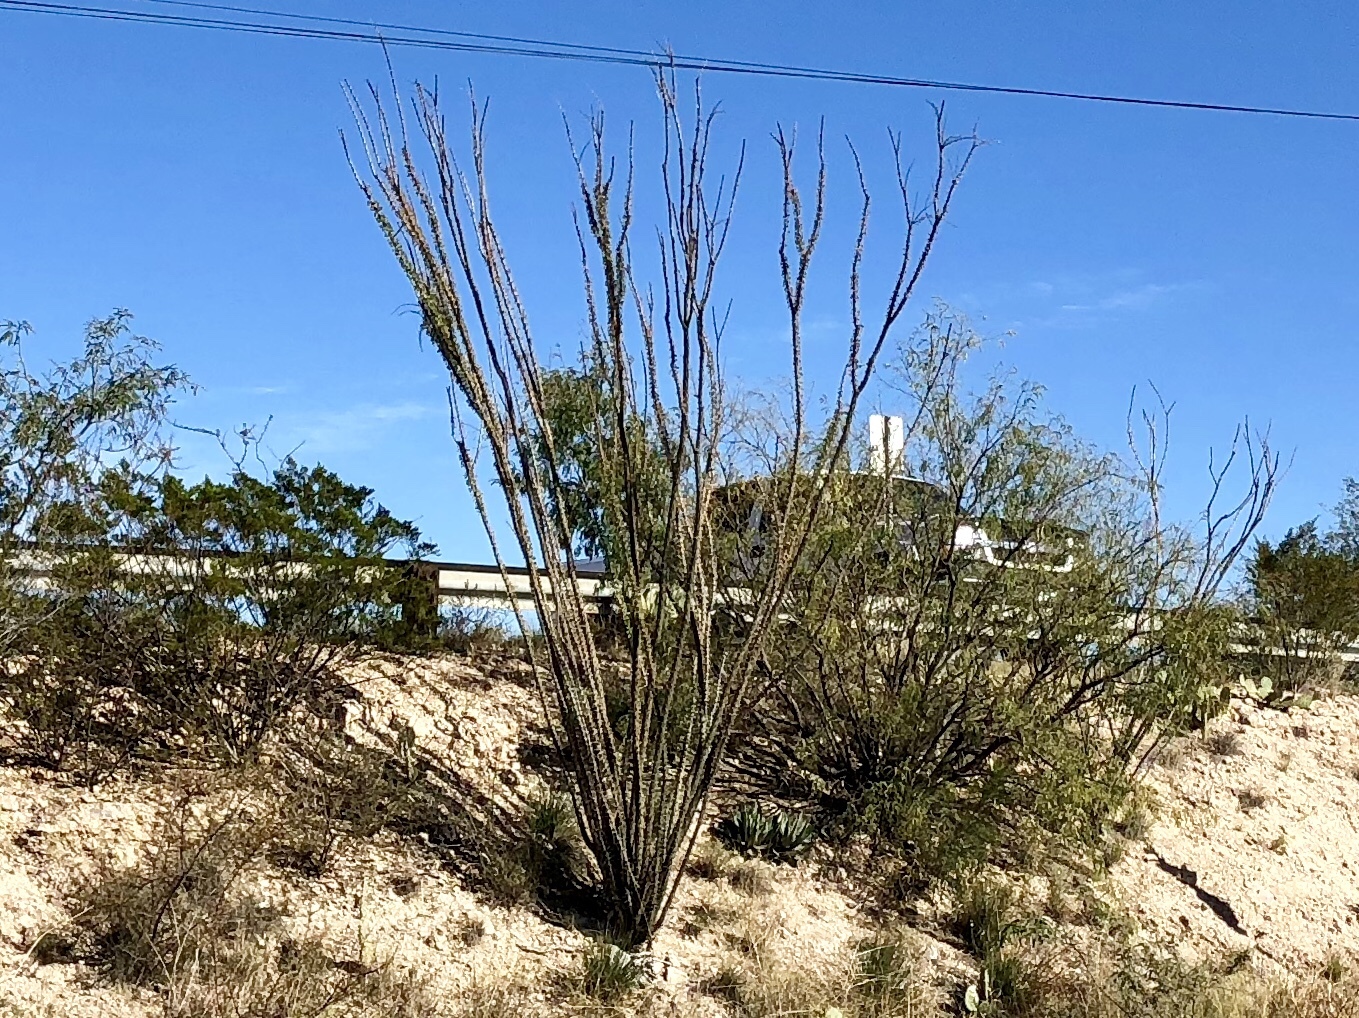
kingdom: Plantae
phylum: Tracheophyta
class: Magnoliopsida
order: Ericales
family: Fouquieriaceae
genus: Fouquieria
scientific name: Fouquieria splendens
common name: Vine-cactus
